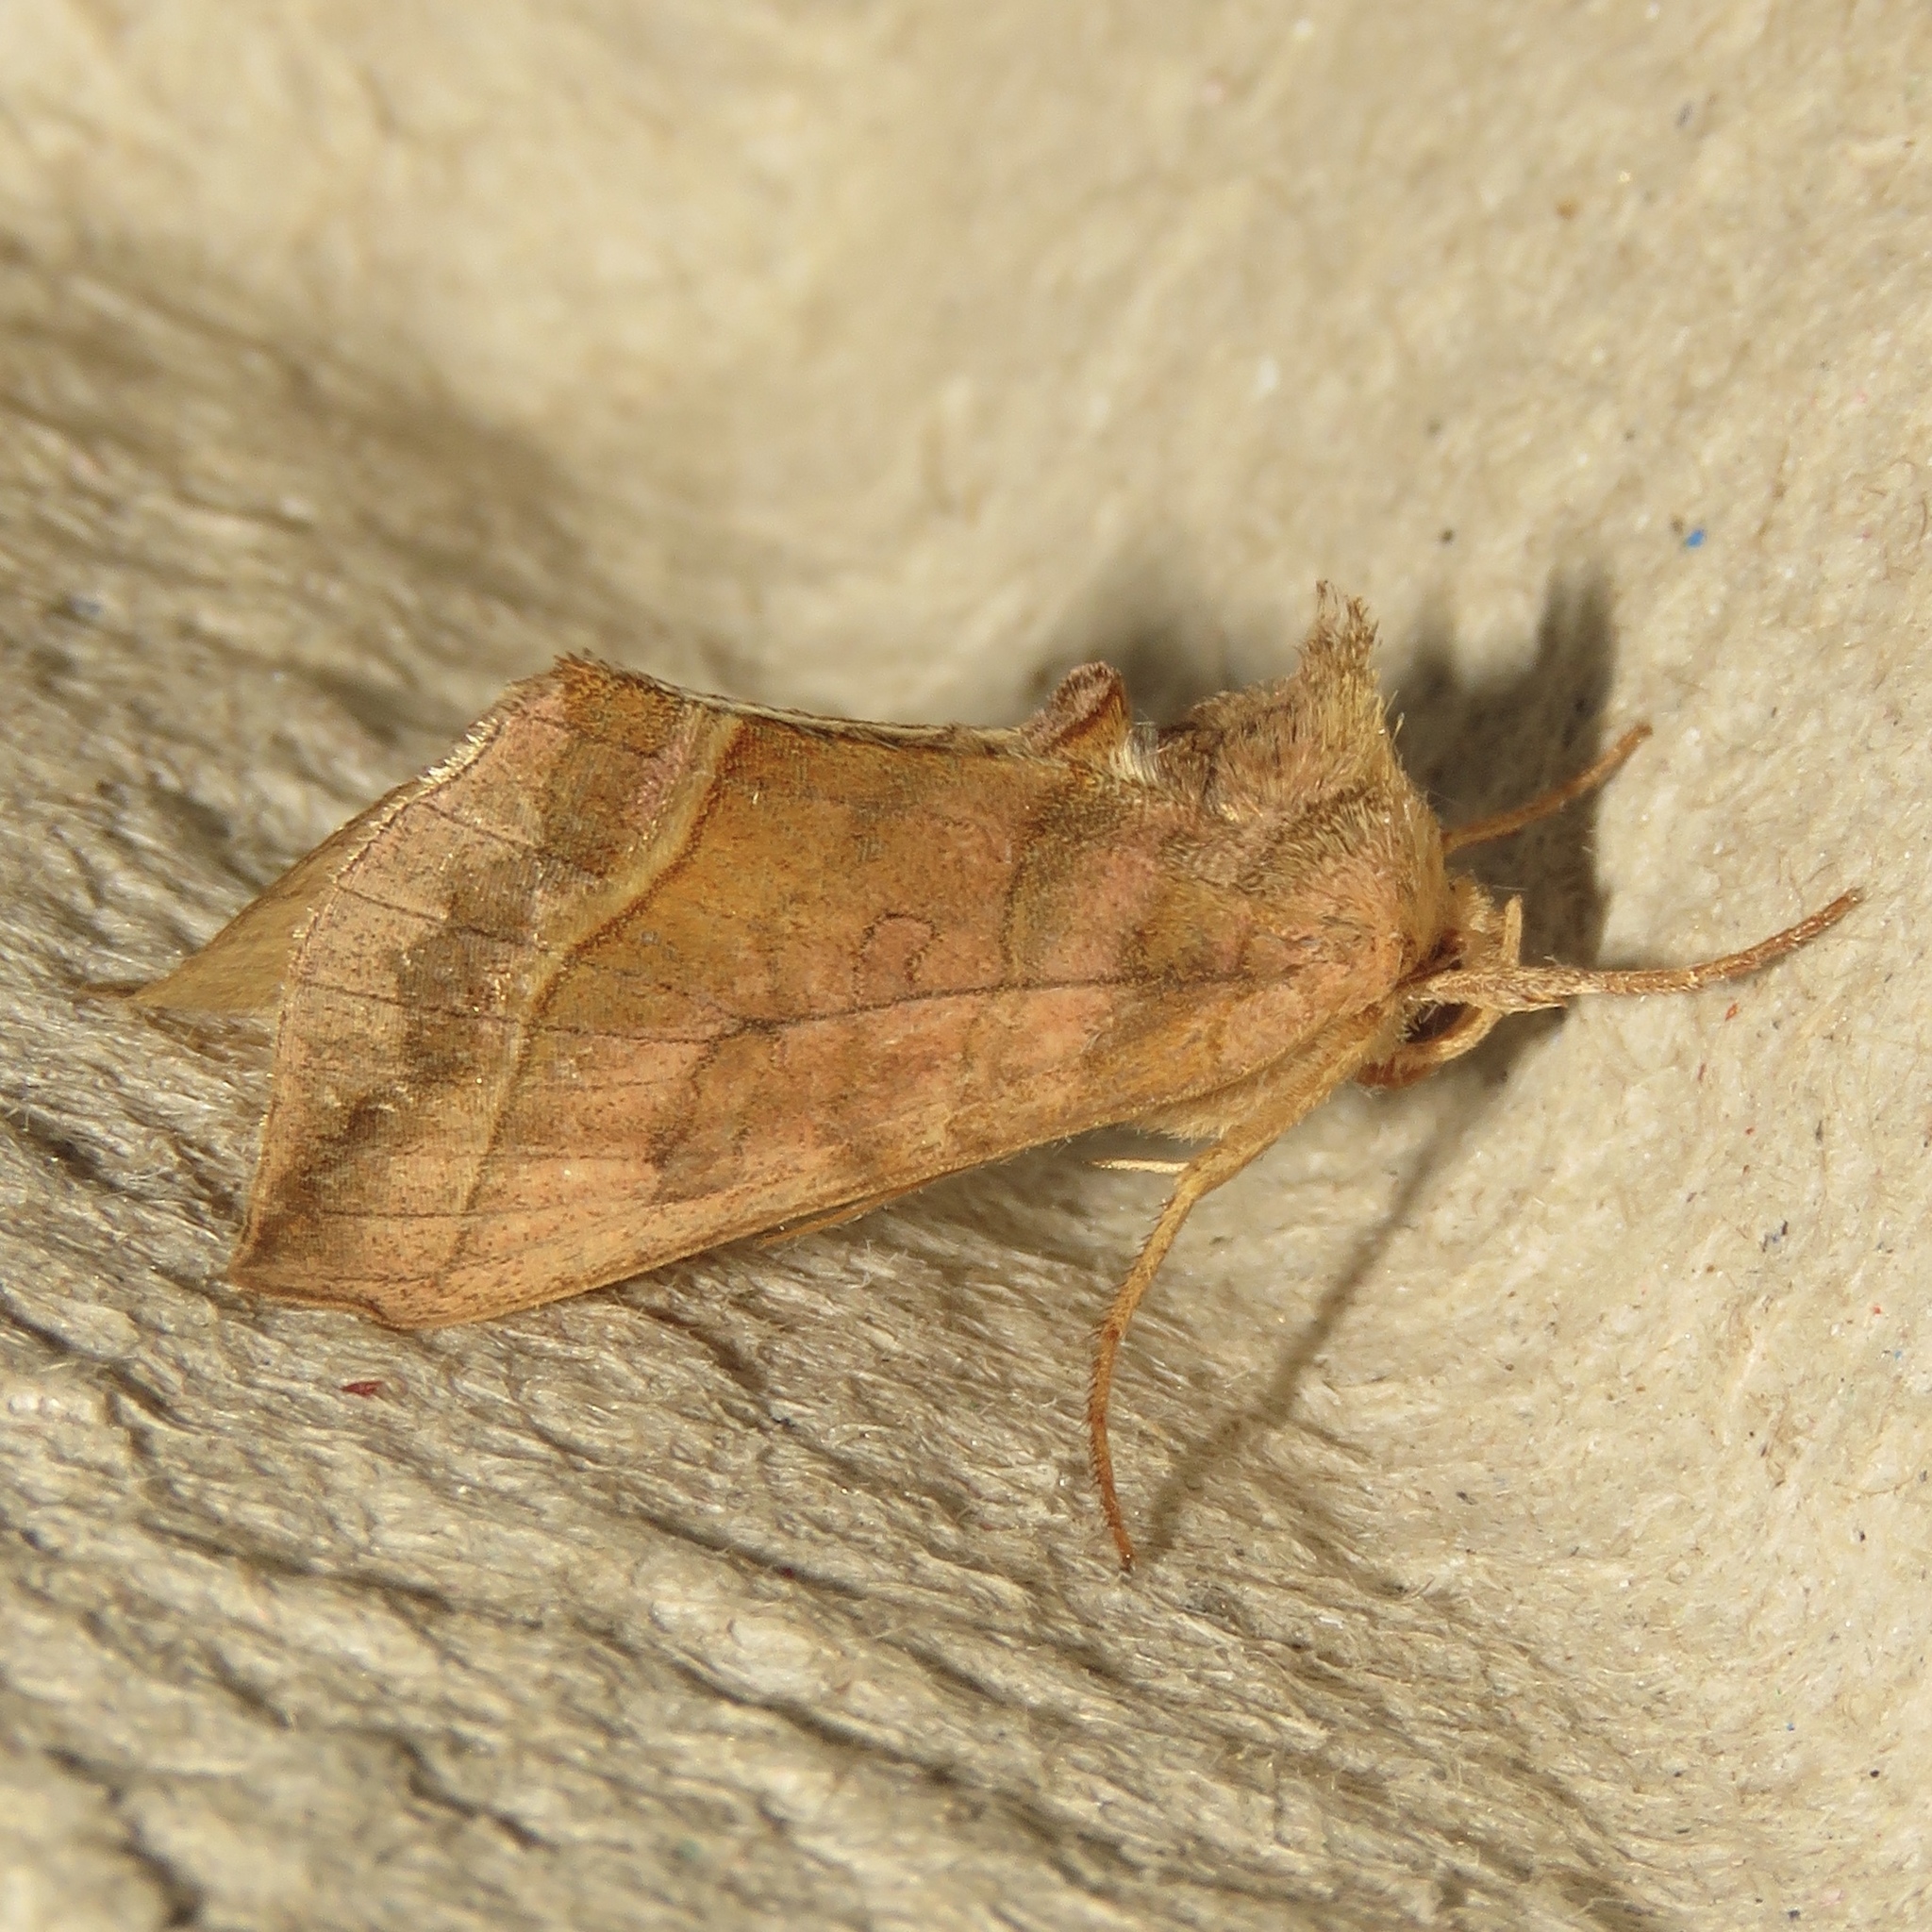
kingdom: Animalia
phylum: Arthropoda
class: Insecta
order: Lepidoptera
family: Noctuidae
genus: Diachrysia
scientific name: Diachrysia aereoides
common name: Dark-spotted looper moth
